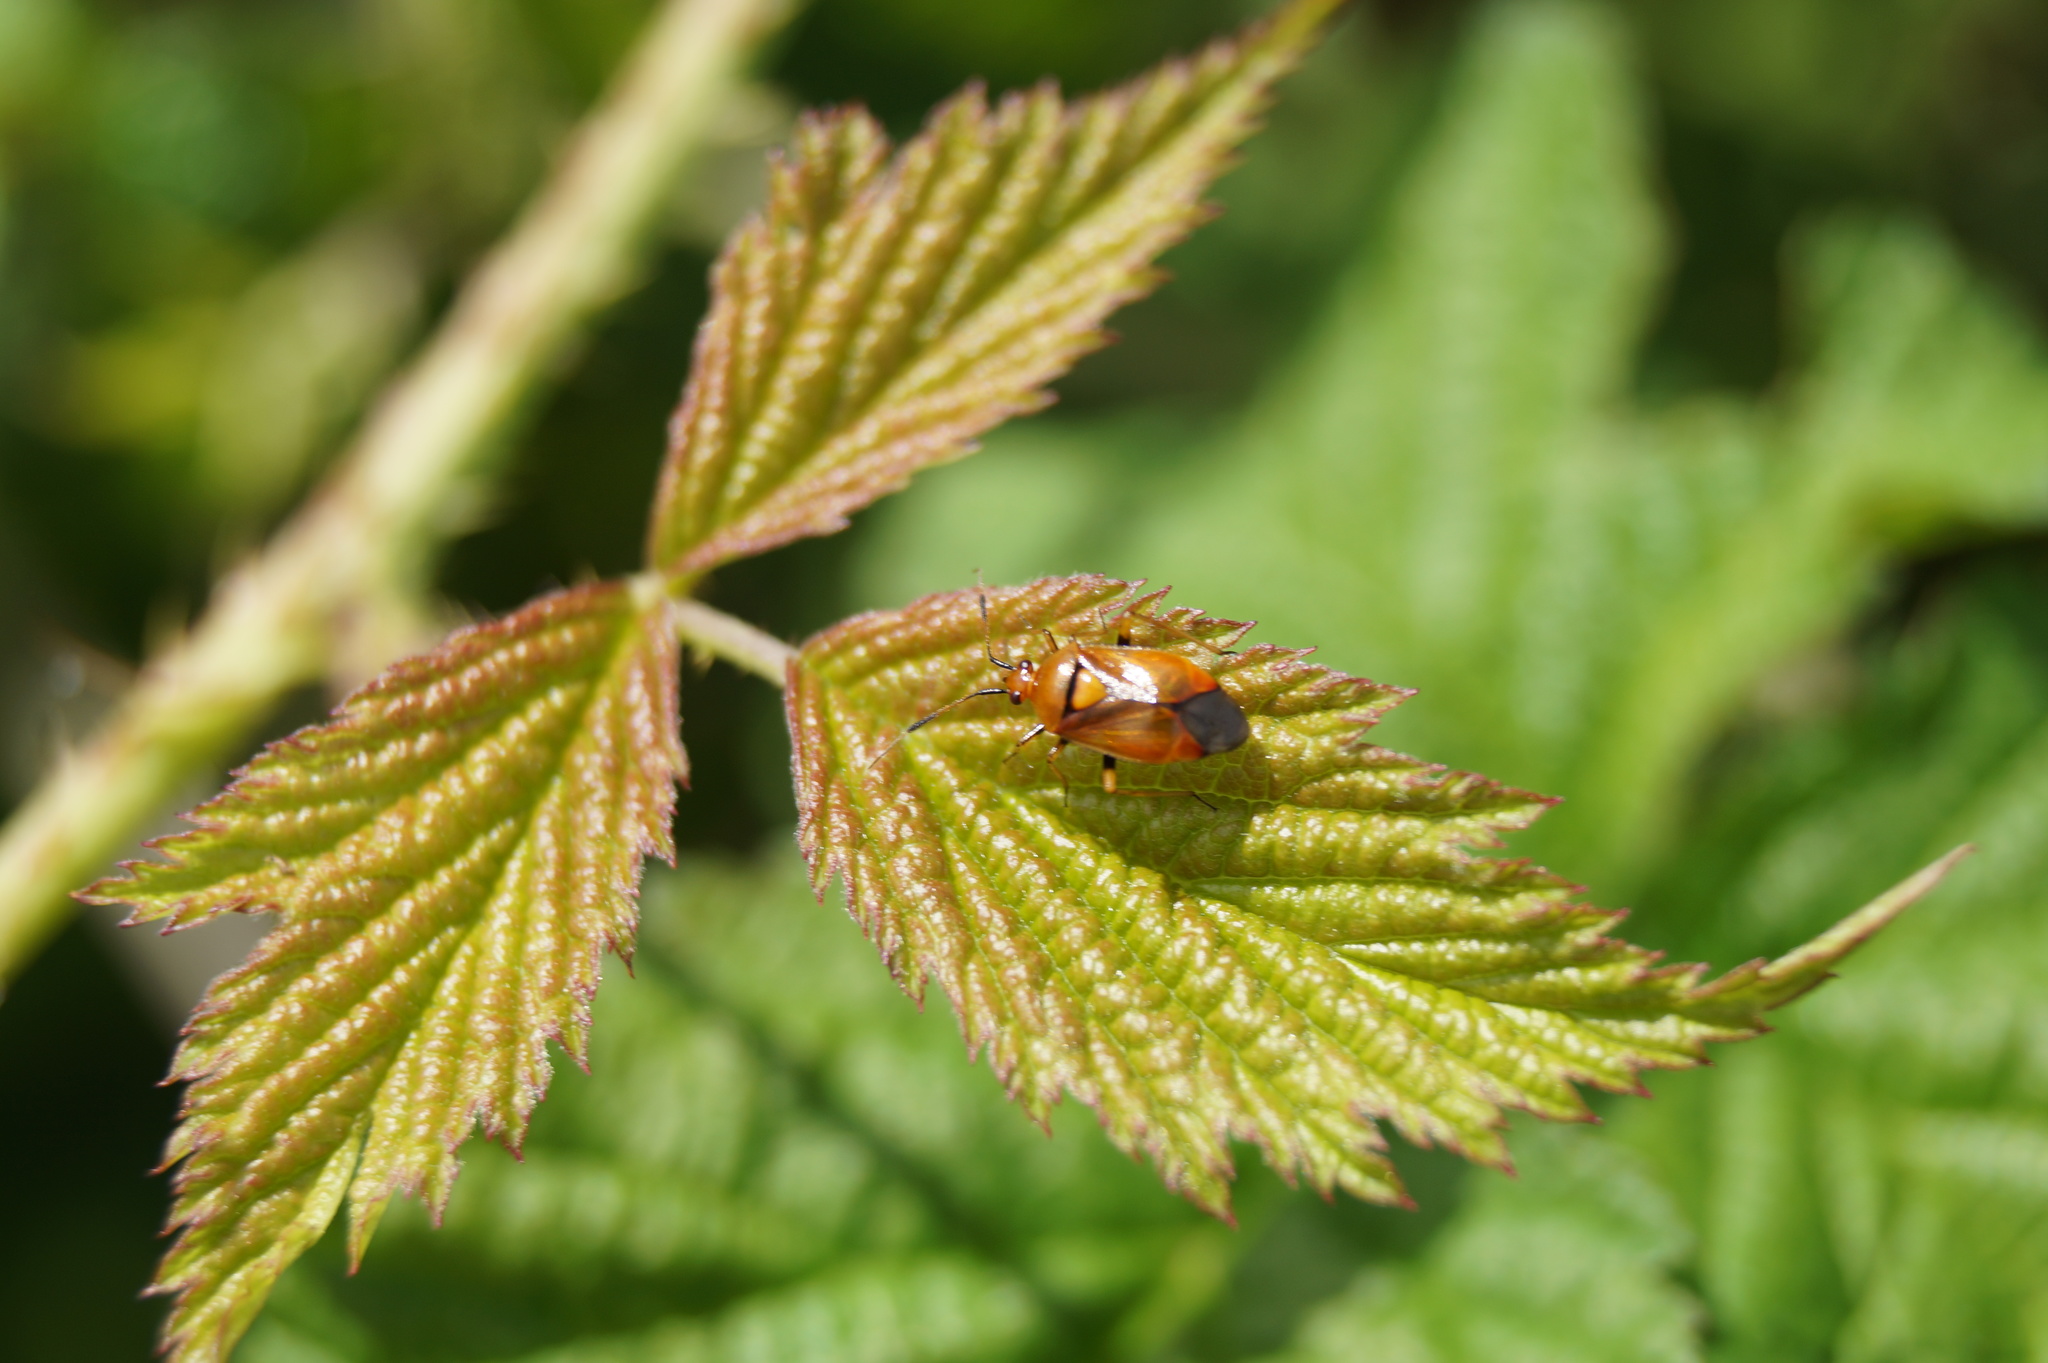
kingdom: Animalia
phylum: Arthropoda
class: Insecta
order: Hemiptera
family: Miridae
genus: Deraeocoris
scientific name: Deraeocoris ruber
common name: Plant bug
